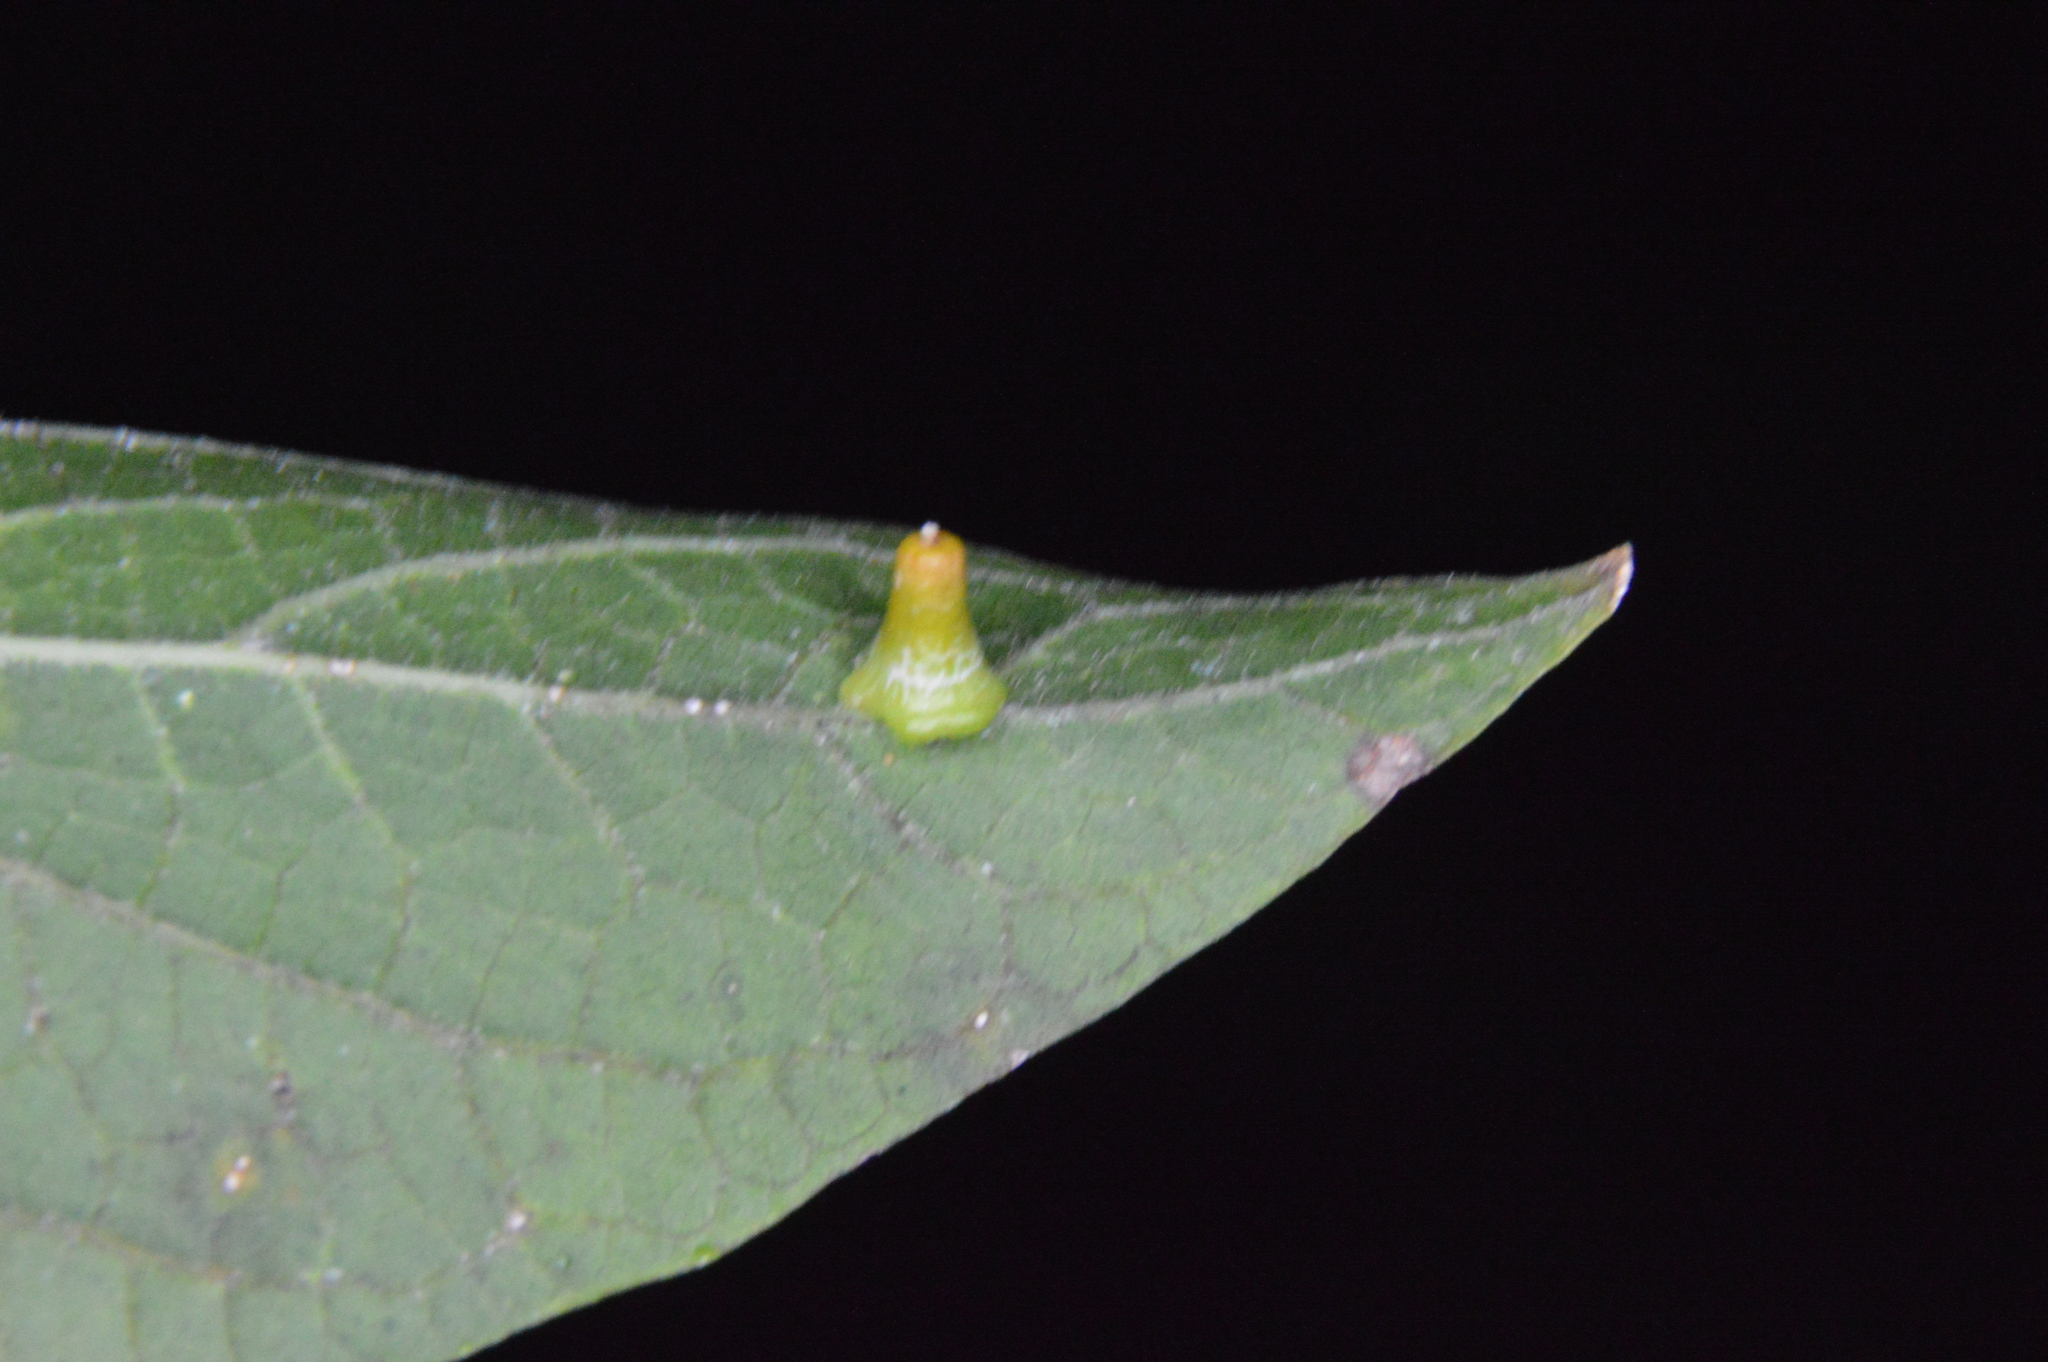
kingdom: Animalia
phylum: Arthropoda
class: Insecta
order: Diptera
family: Cecidomyiidae
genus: Celticecis
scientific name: Celticecis aciculata
